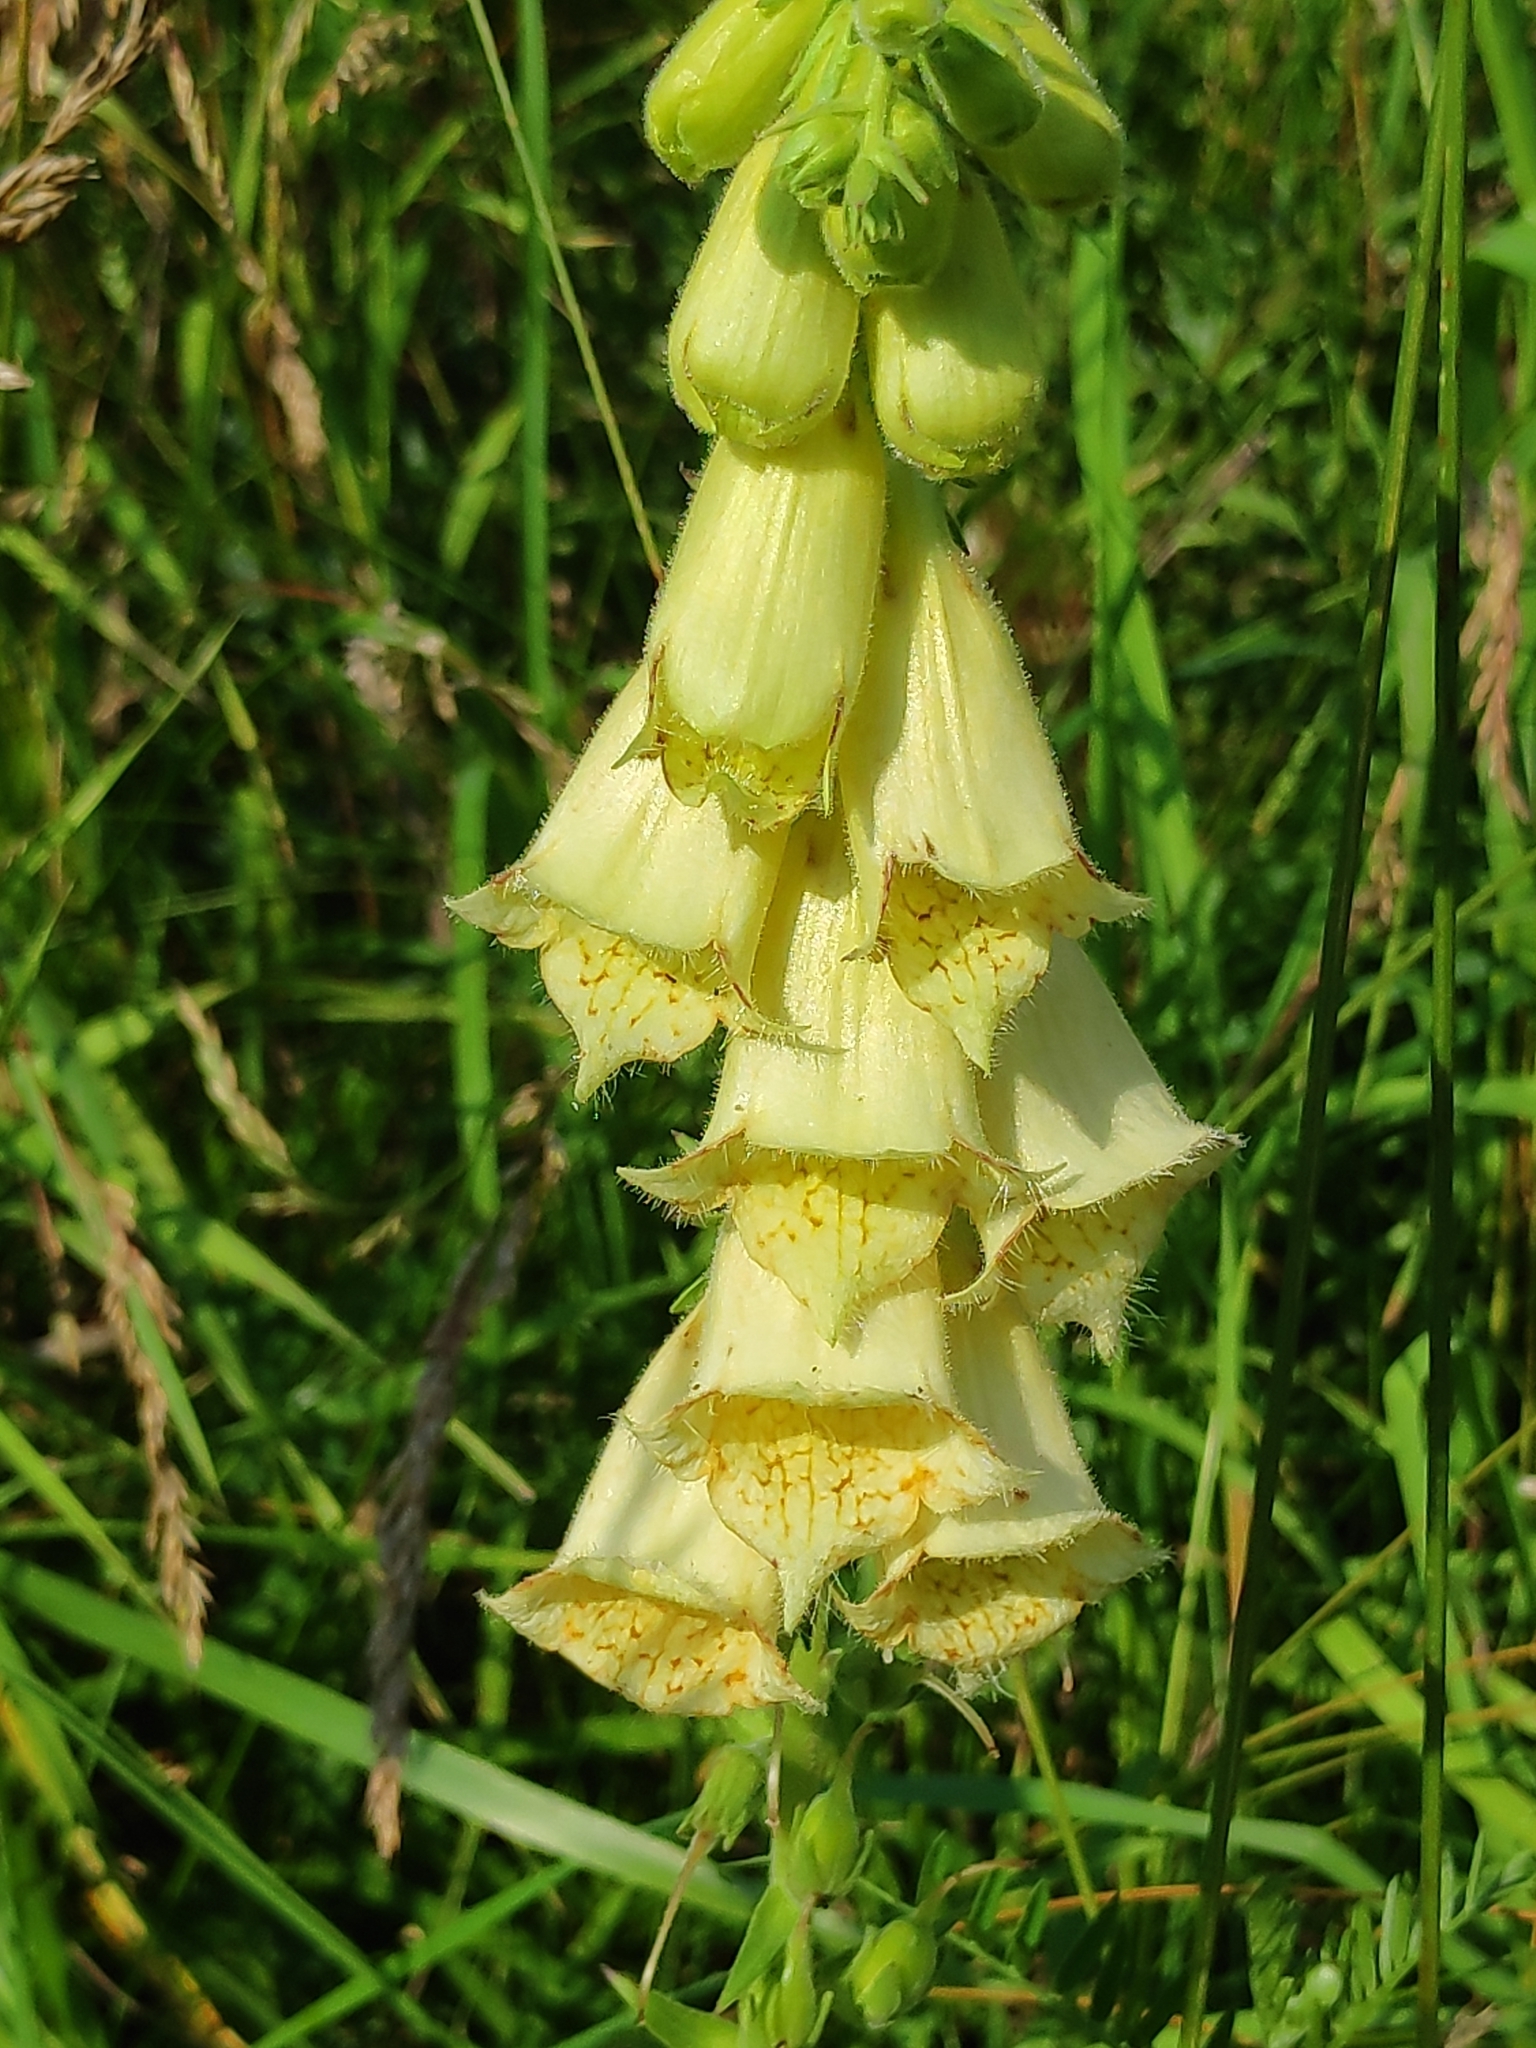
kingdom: Plantae
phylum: Tracheophyta
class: Magnoliopsida
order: Lamiales
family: Plantaginaceae
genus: Digitalis
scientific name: Digitalis grandiflora
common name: Yellow foxglove
